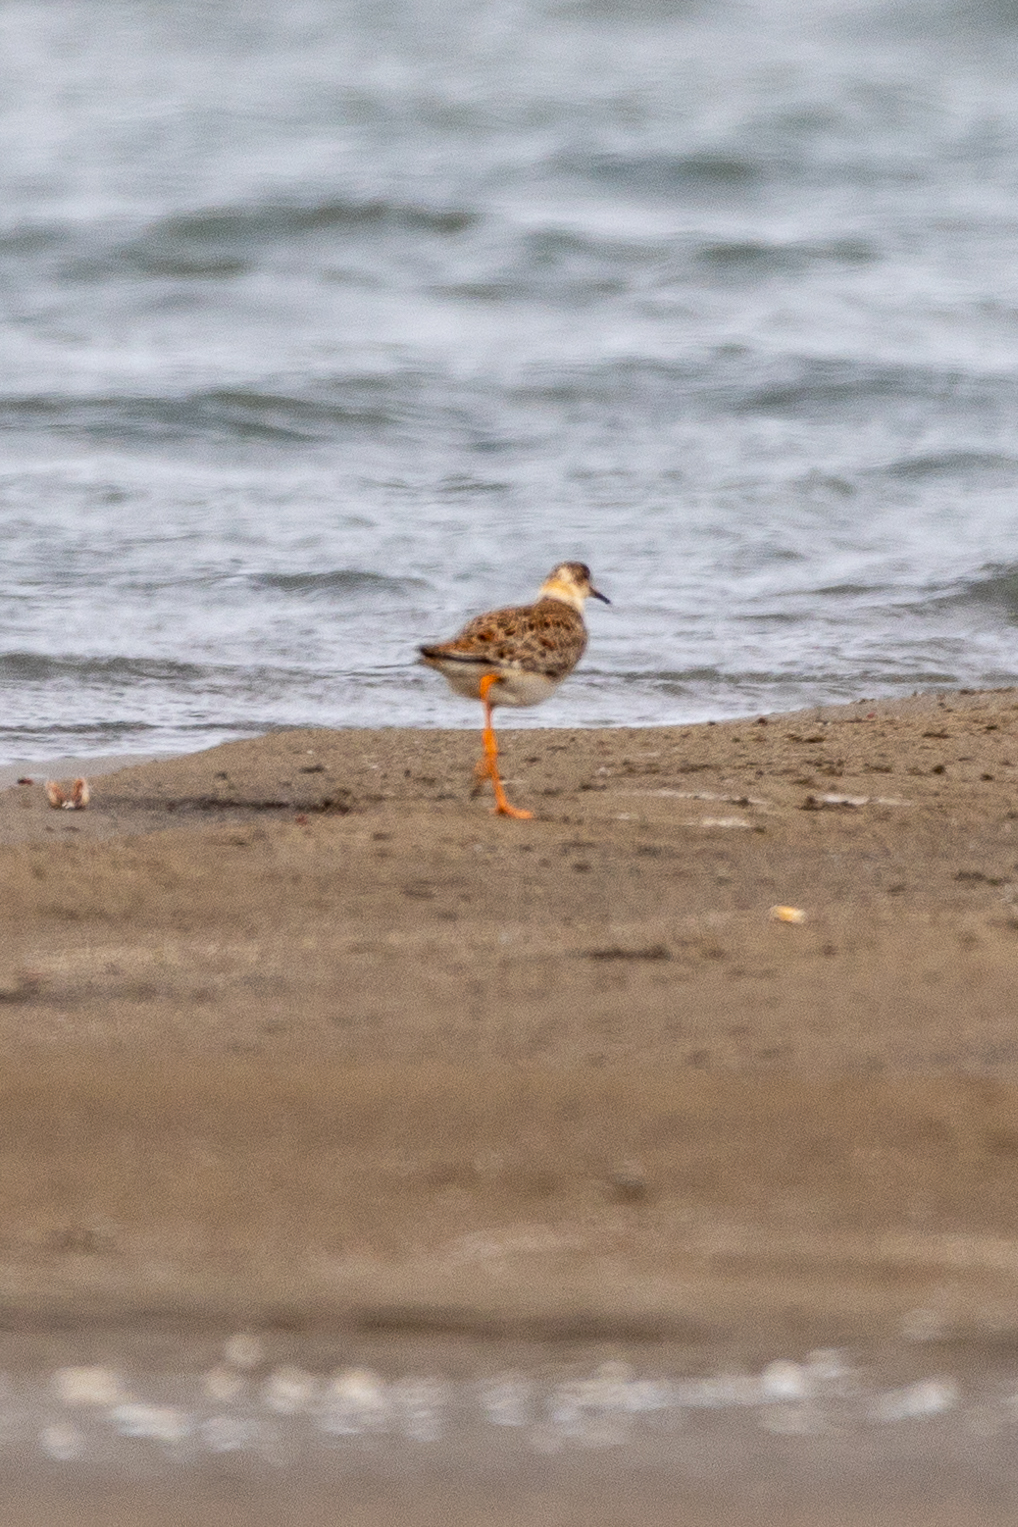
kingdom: Animalia
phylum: Chordata
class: Aves
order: Charadriiformes
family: Scolopacidae
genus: Calidris
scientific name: Calidris pugnax
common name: Ruff
